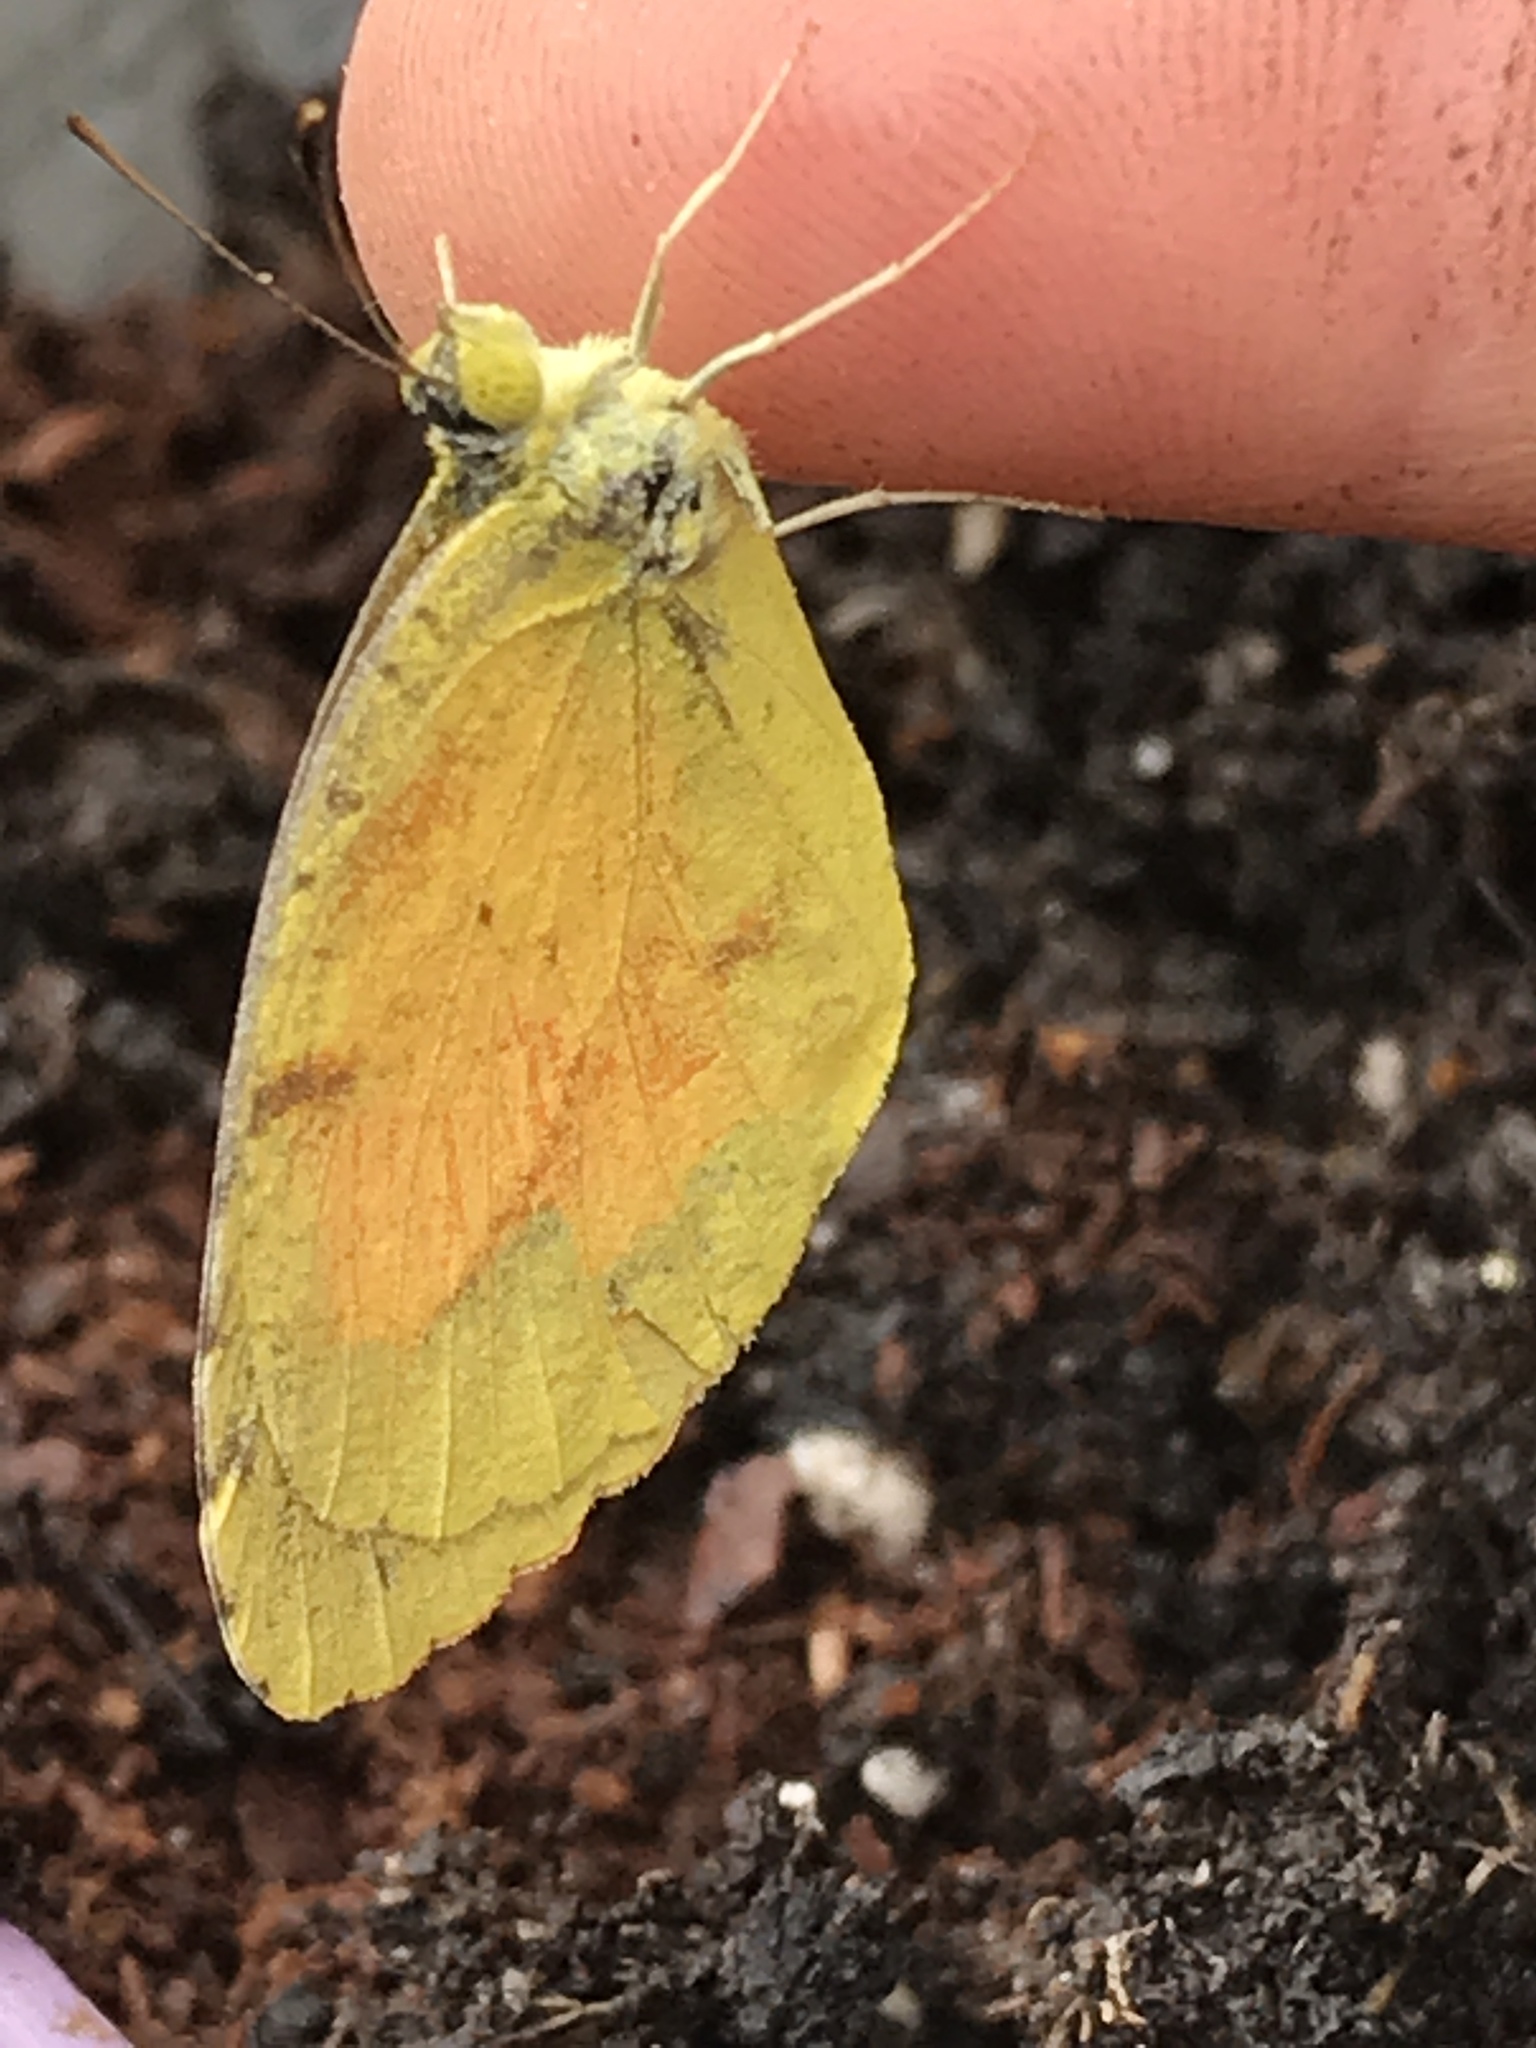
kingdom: Animalia
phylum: Arthropoda
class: Insecta
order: Lepidoptera
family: Pieridae
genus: Abaeis
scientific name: Abaeis nicippe
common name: Sleepy orange
